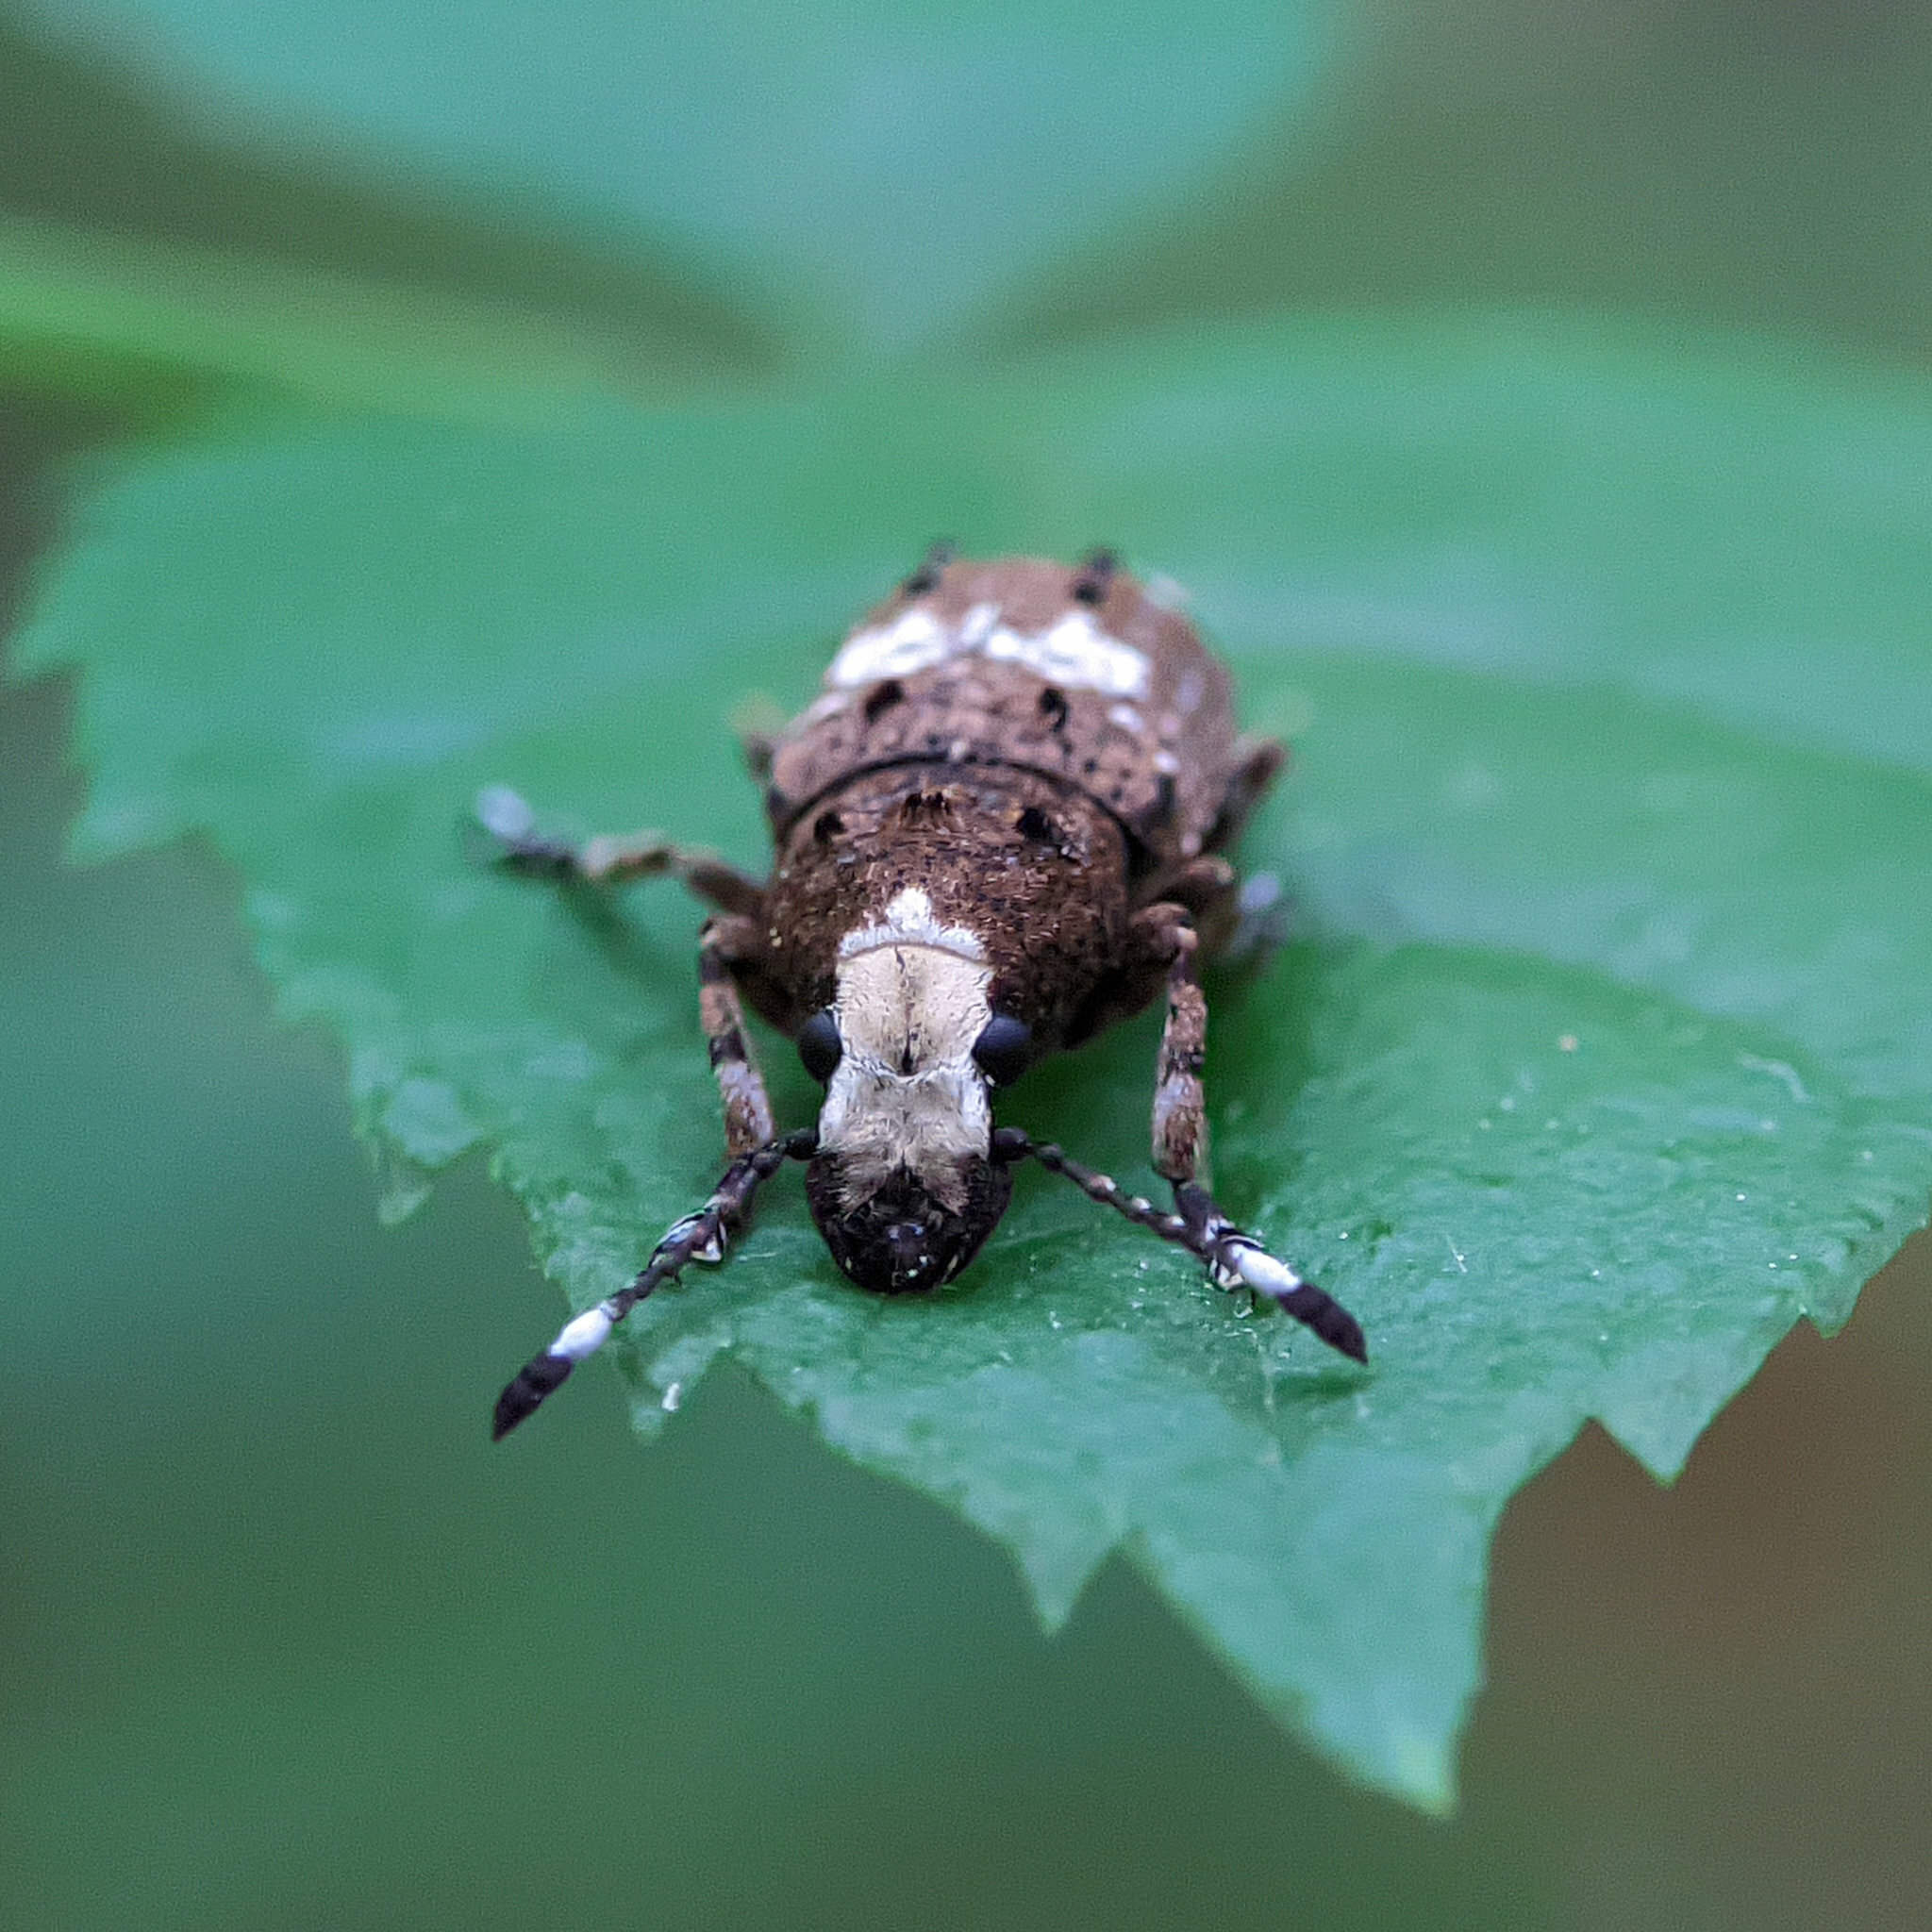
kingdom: Animalia
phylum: Arthropoda
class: Insecta
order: Coleoptera
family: Anthribidae
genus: Platystomos
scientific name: Platystomos albinus
